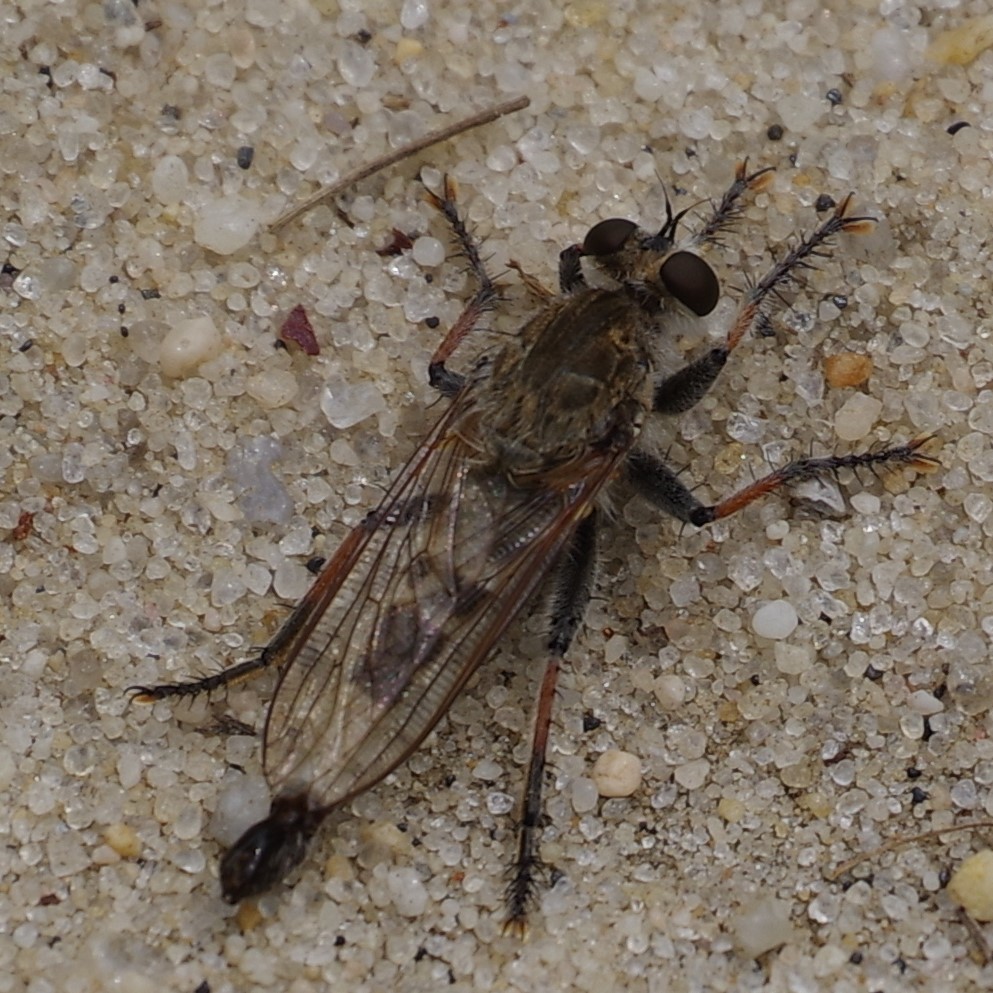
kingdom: Animalia
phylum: Arthropoda
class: Insecta
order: Diptera
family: Asilidae
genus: Efferia
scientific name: Efferia albibarbis
